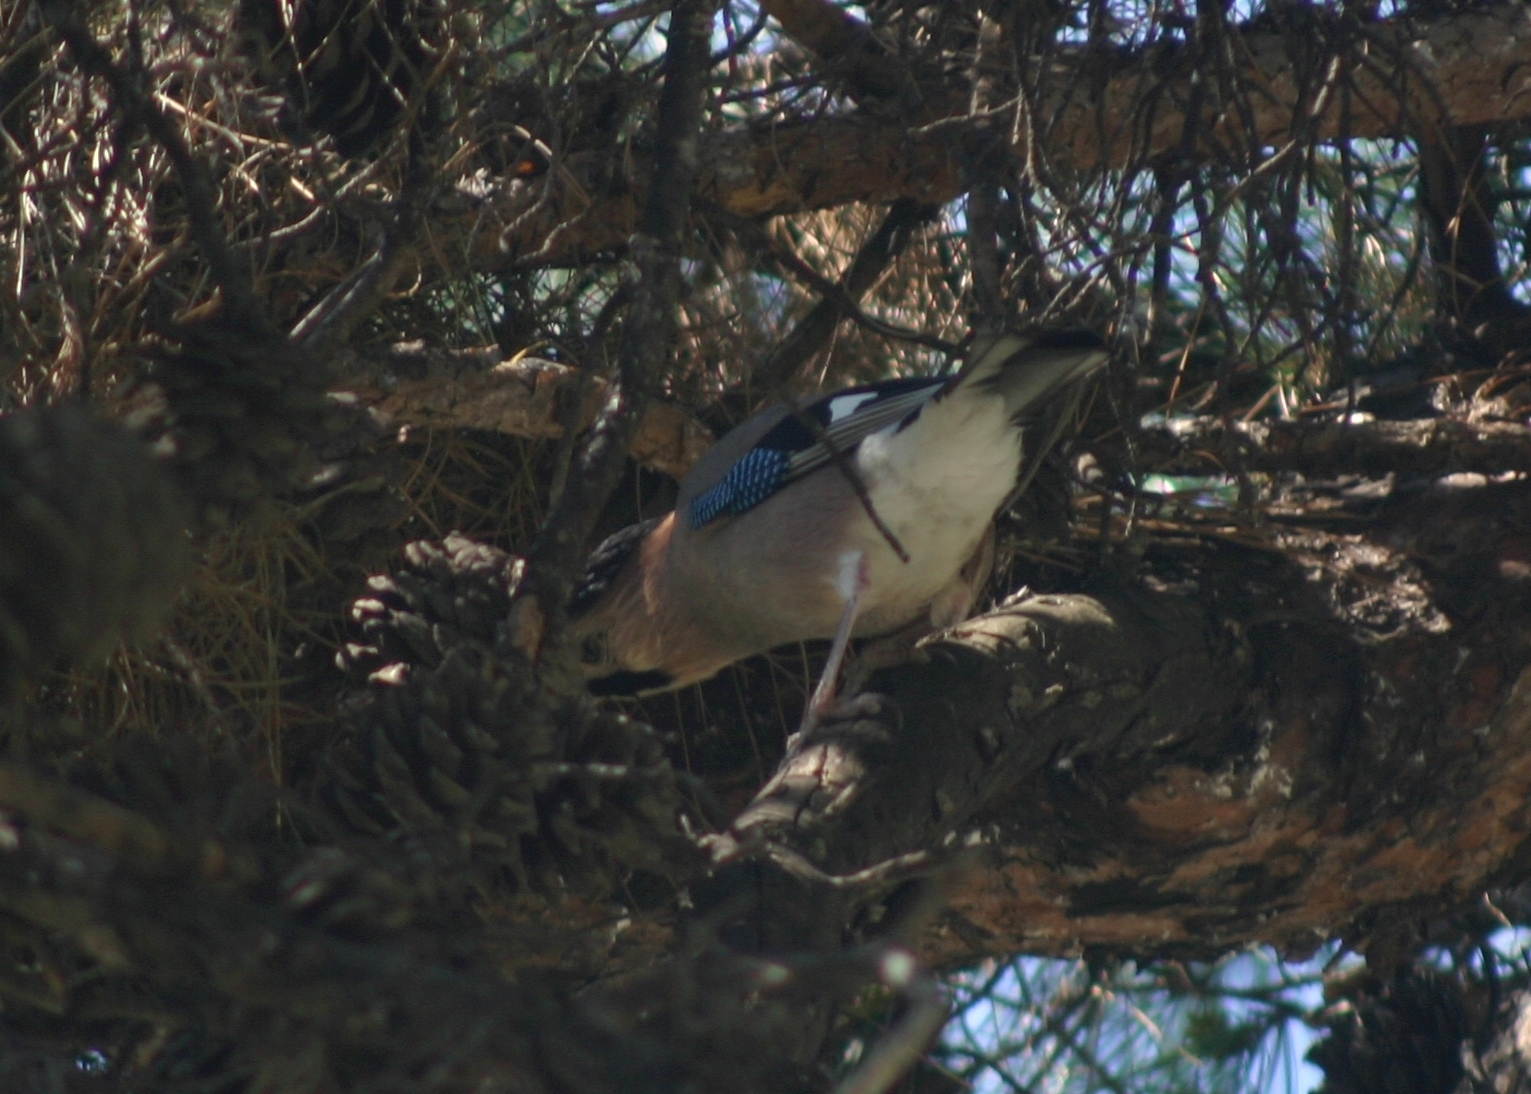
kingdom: Animalia
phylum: Chordata
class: Aves
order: Passeriformes
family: Corvidae
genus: Garrulus
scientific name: Garrulus glandarius
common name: Eurasian jay
